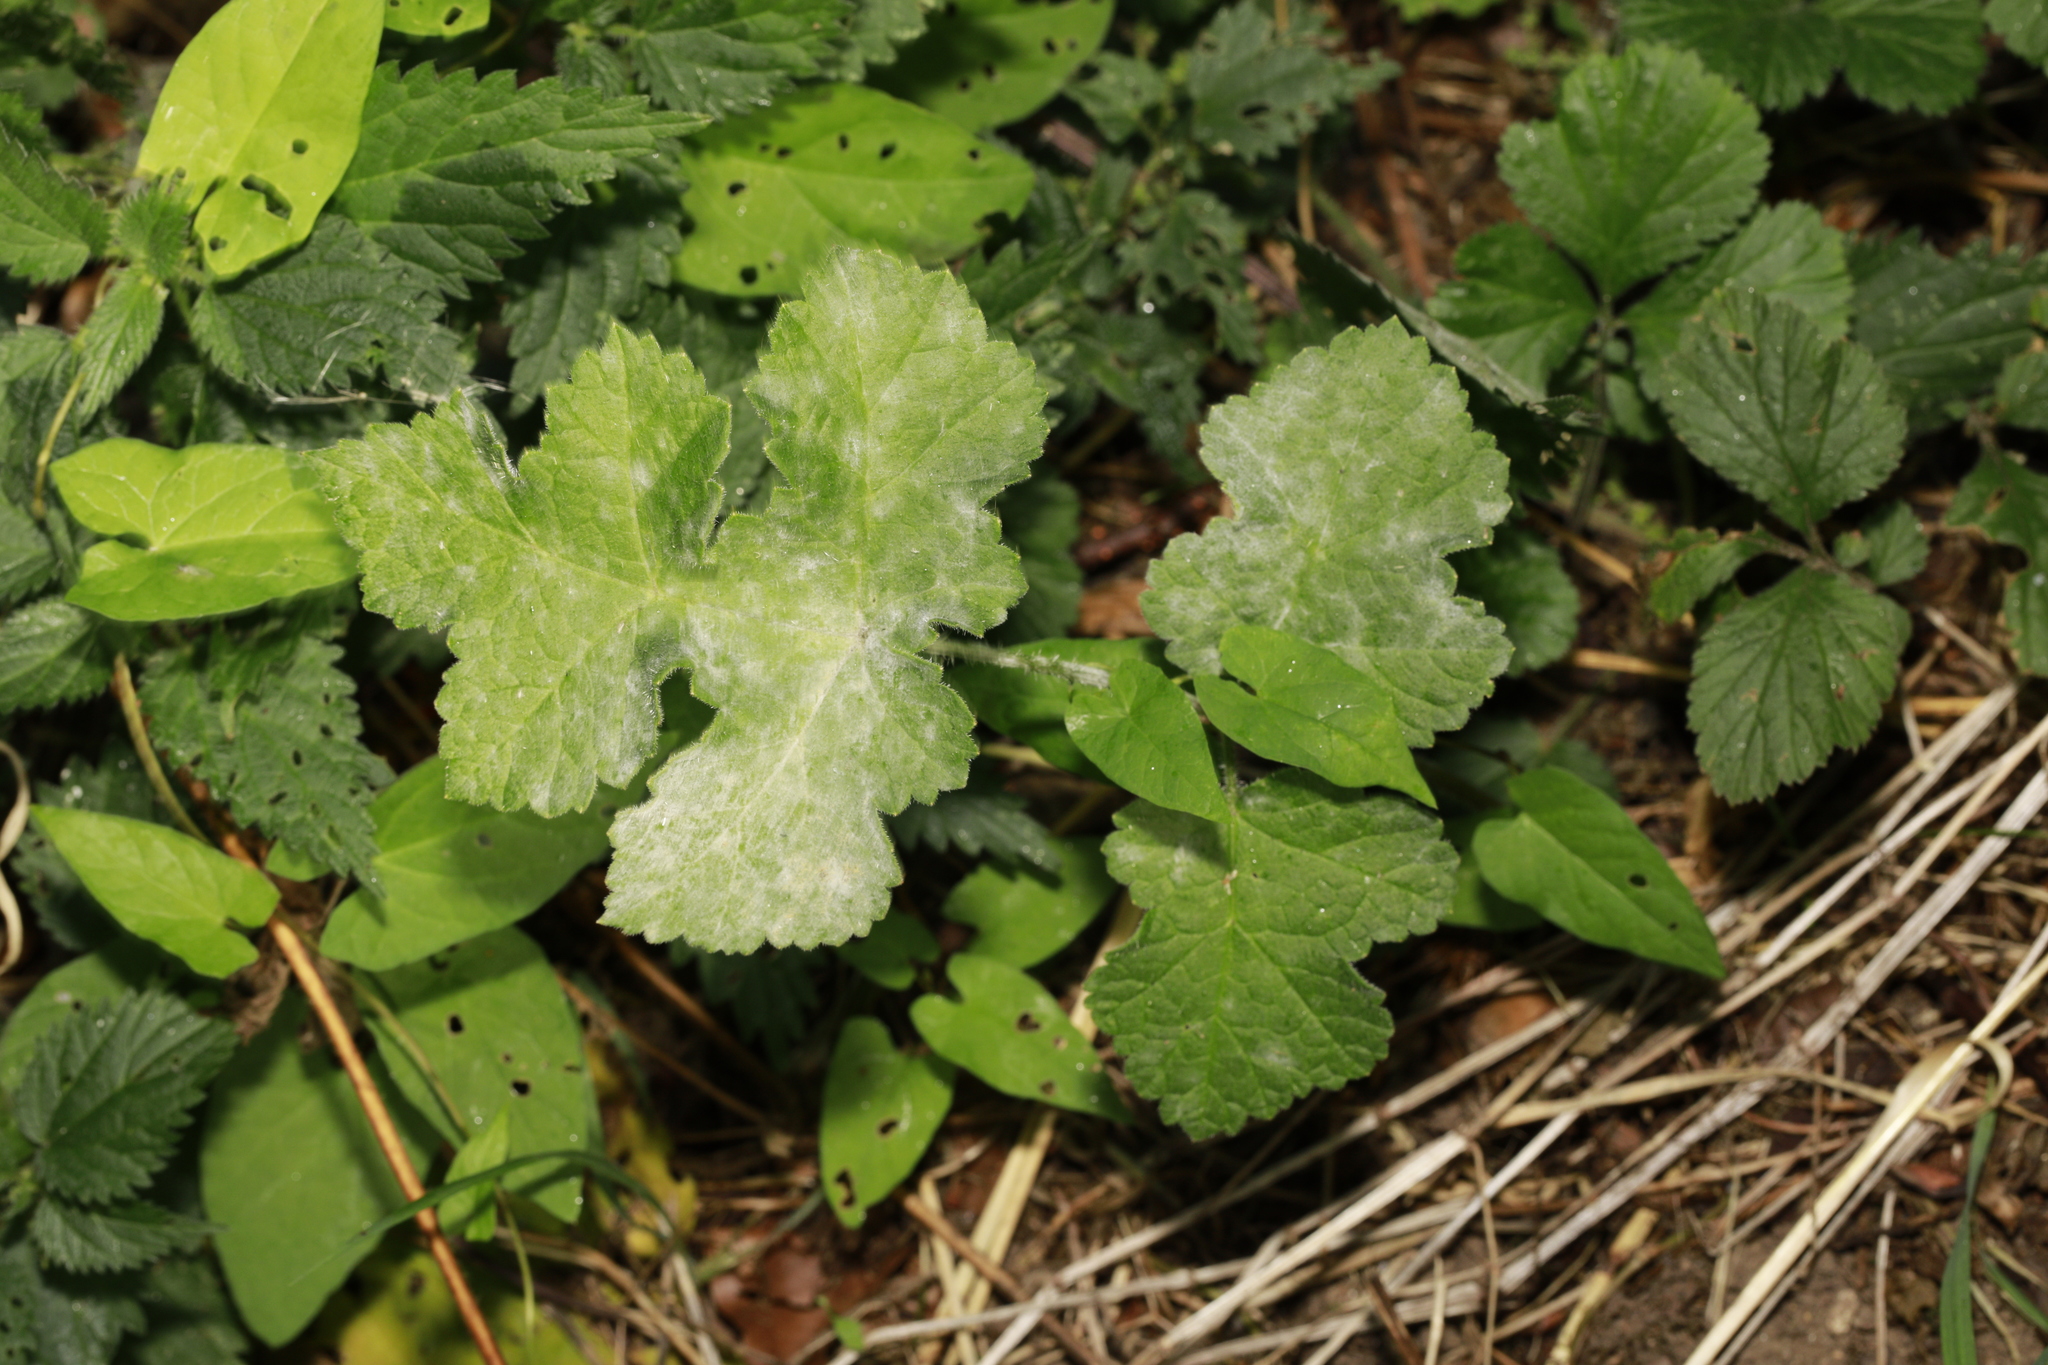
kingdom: Plantae
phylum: Tracheophyta
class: Magnoliopsida
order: Apiales
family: Apiaceae
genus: Heracleum
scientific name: Heracleum sphondylium
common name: Hogweed
